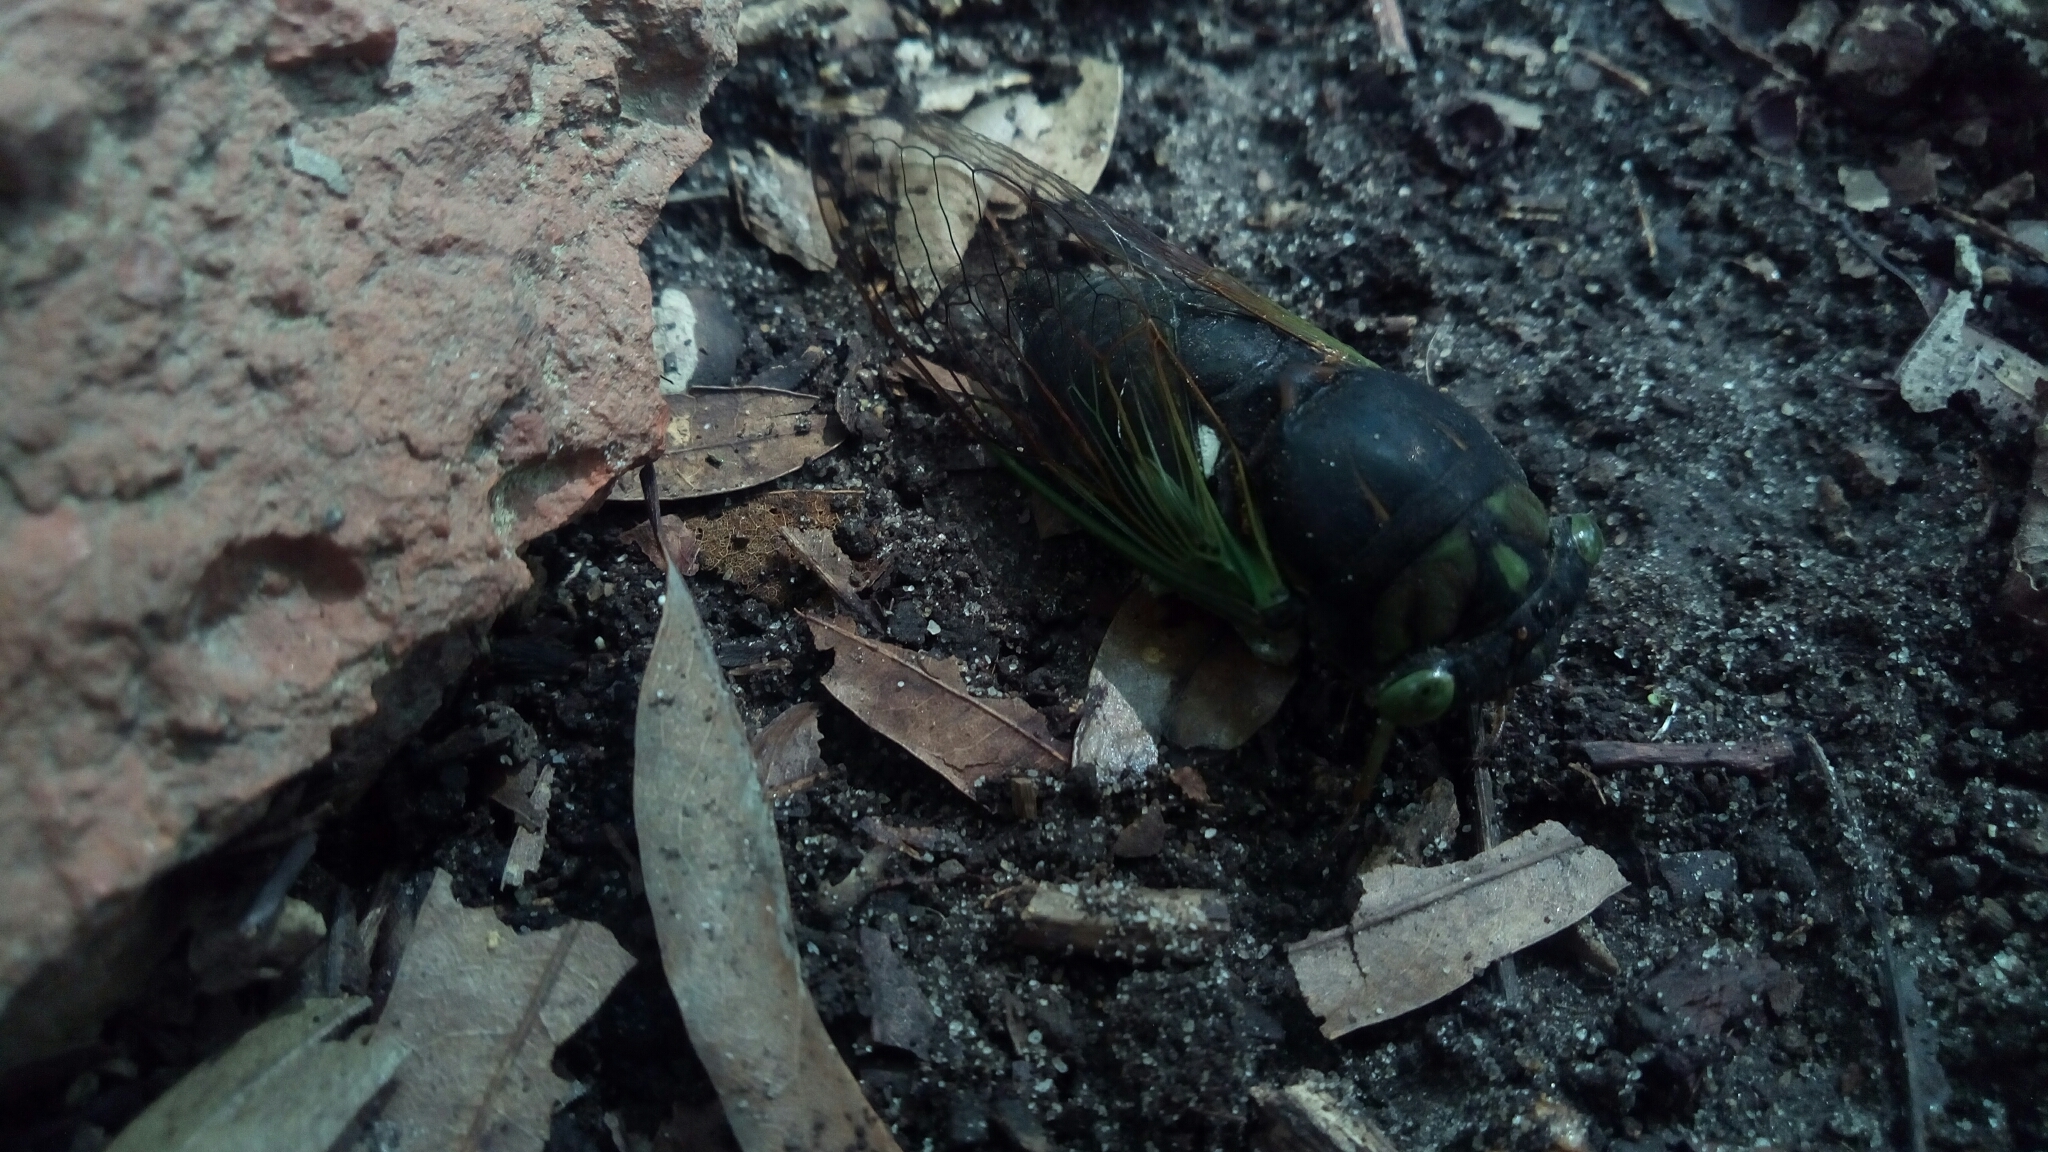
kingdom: Animalia
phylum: Arthropoda
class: Insecta
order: Hemiptera
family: Cicadidae
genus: Neotibicen
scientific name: Neotibicen tibicen
